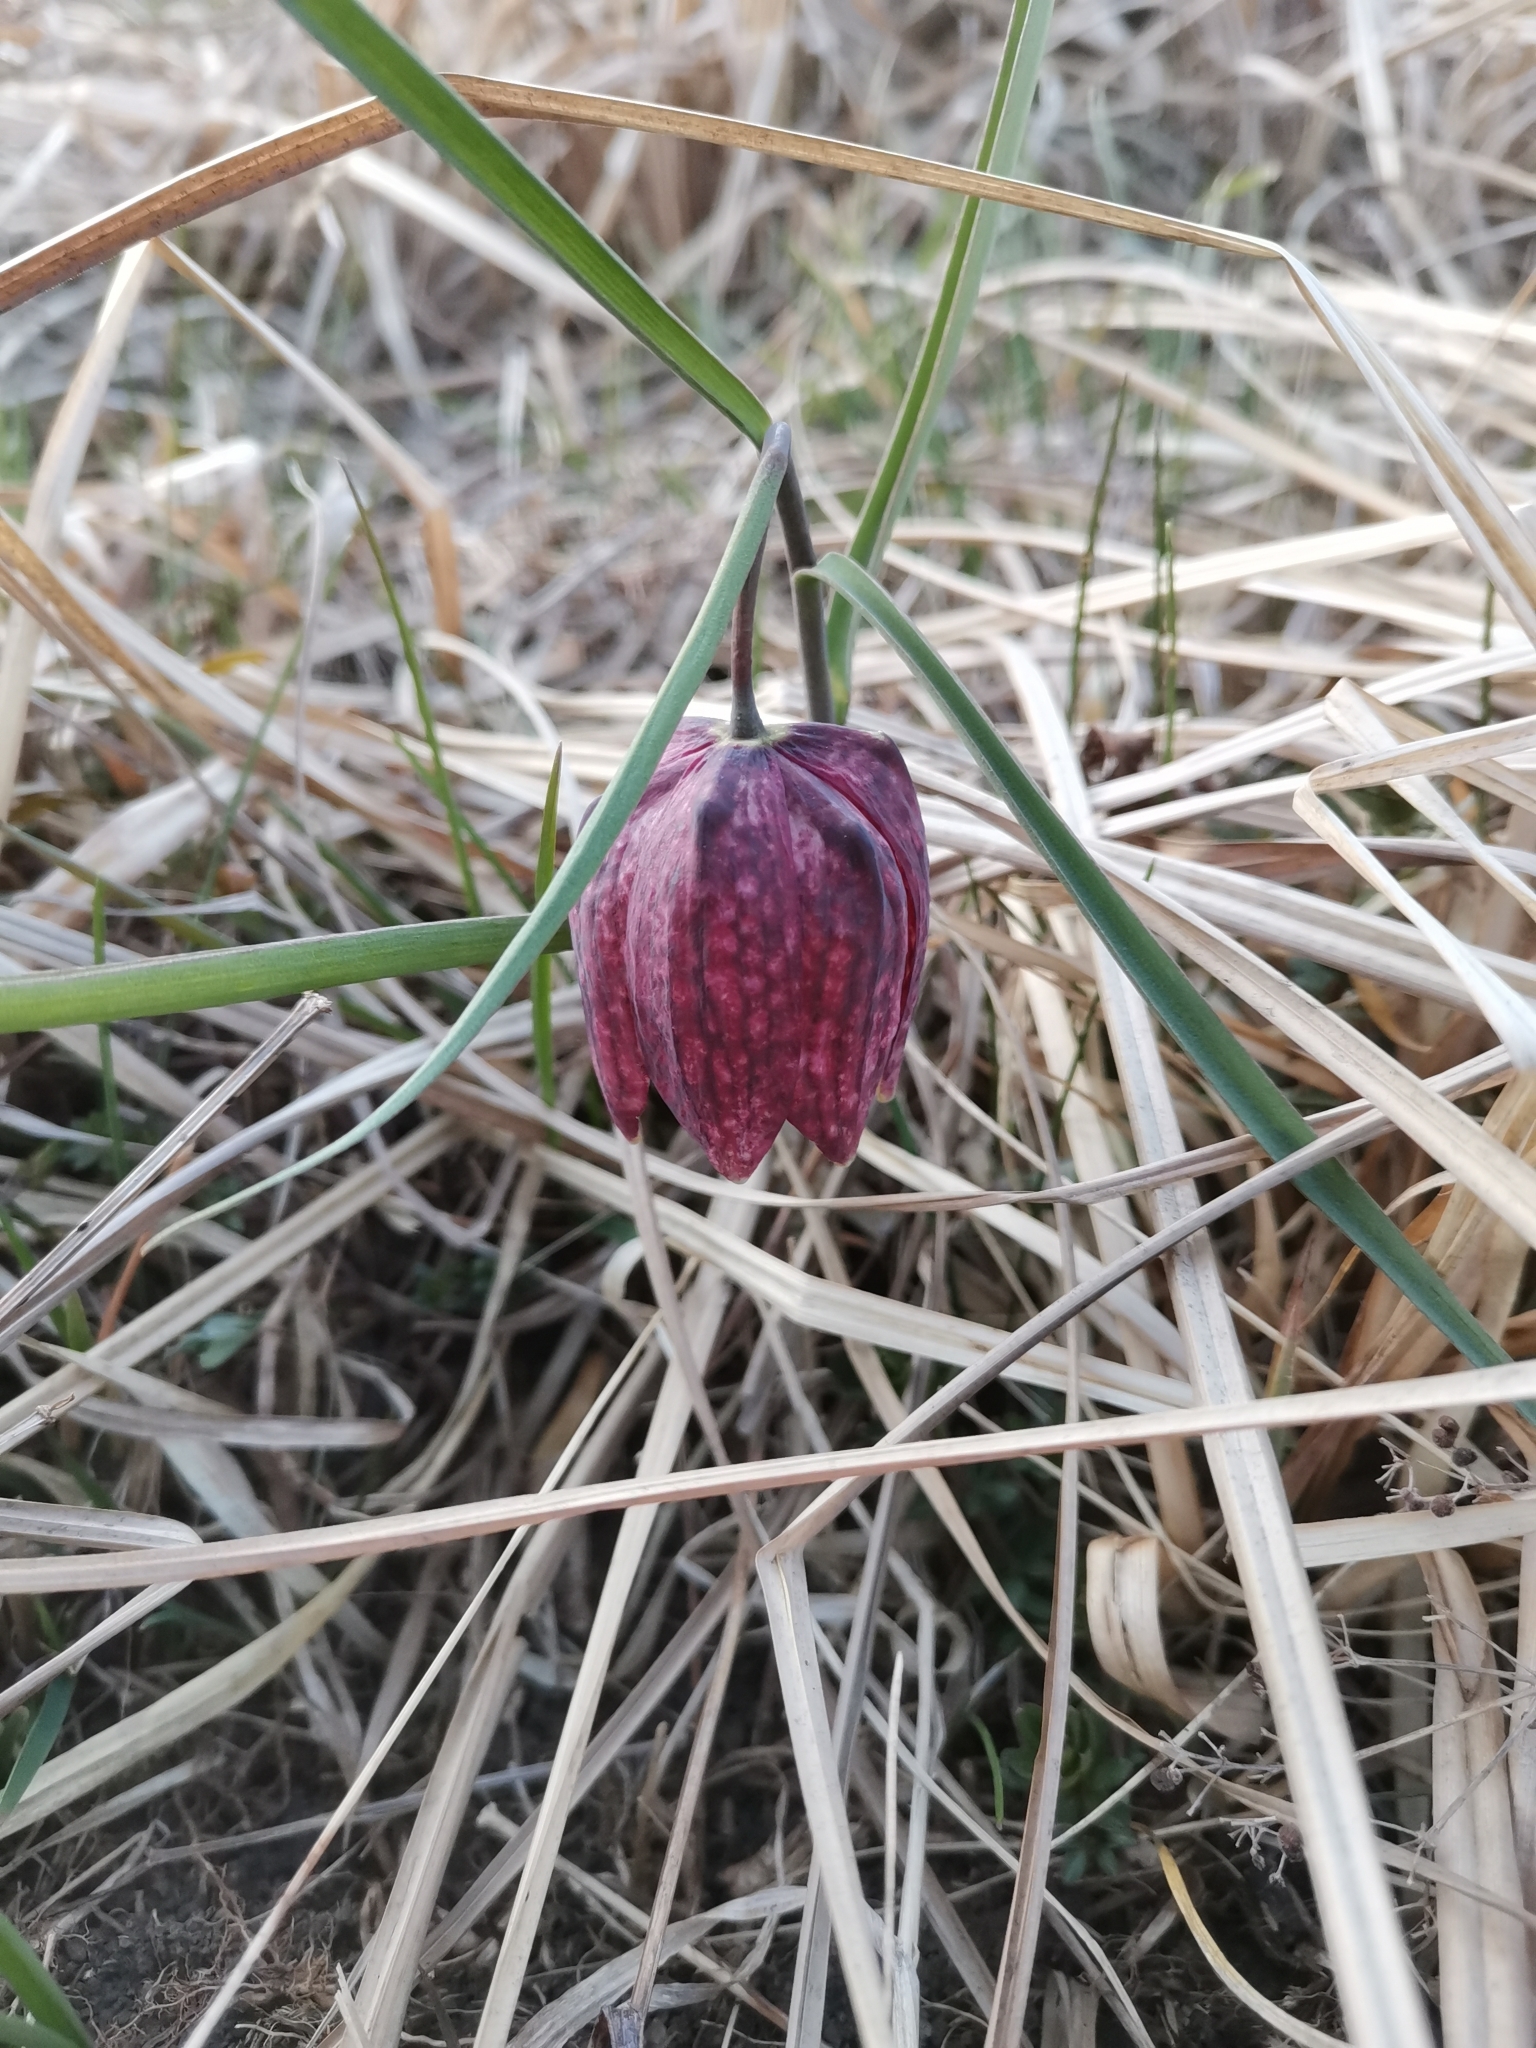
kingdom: Plantae
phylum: Tracheophyta
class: Liliopsida
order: Liliales
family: Liliaceae
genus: Fritillaria
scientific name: Fritillaria meleagris
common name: Fritillary
